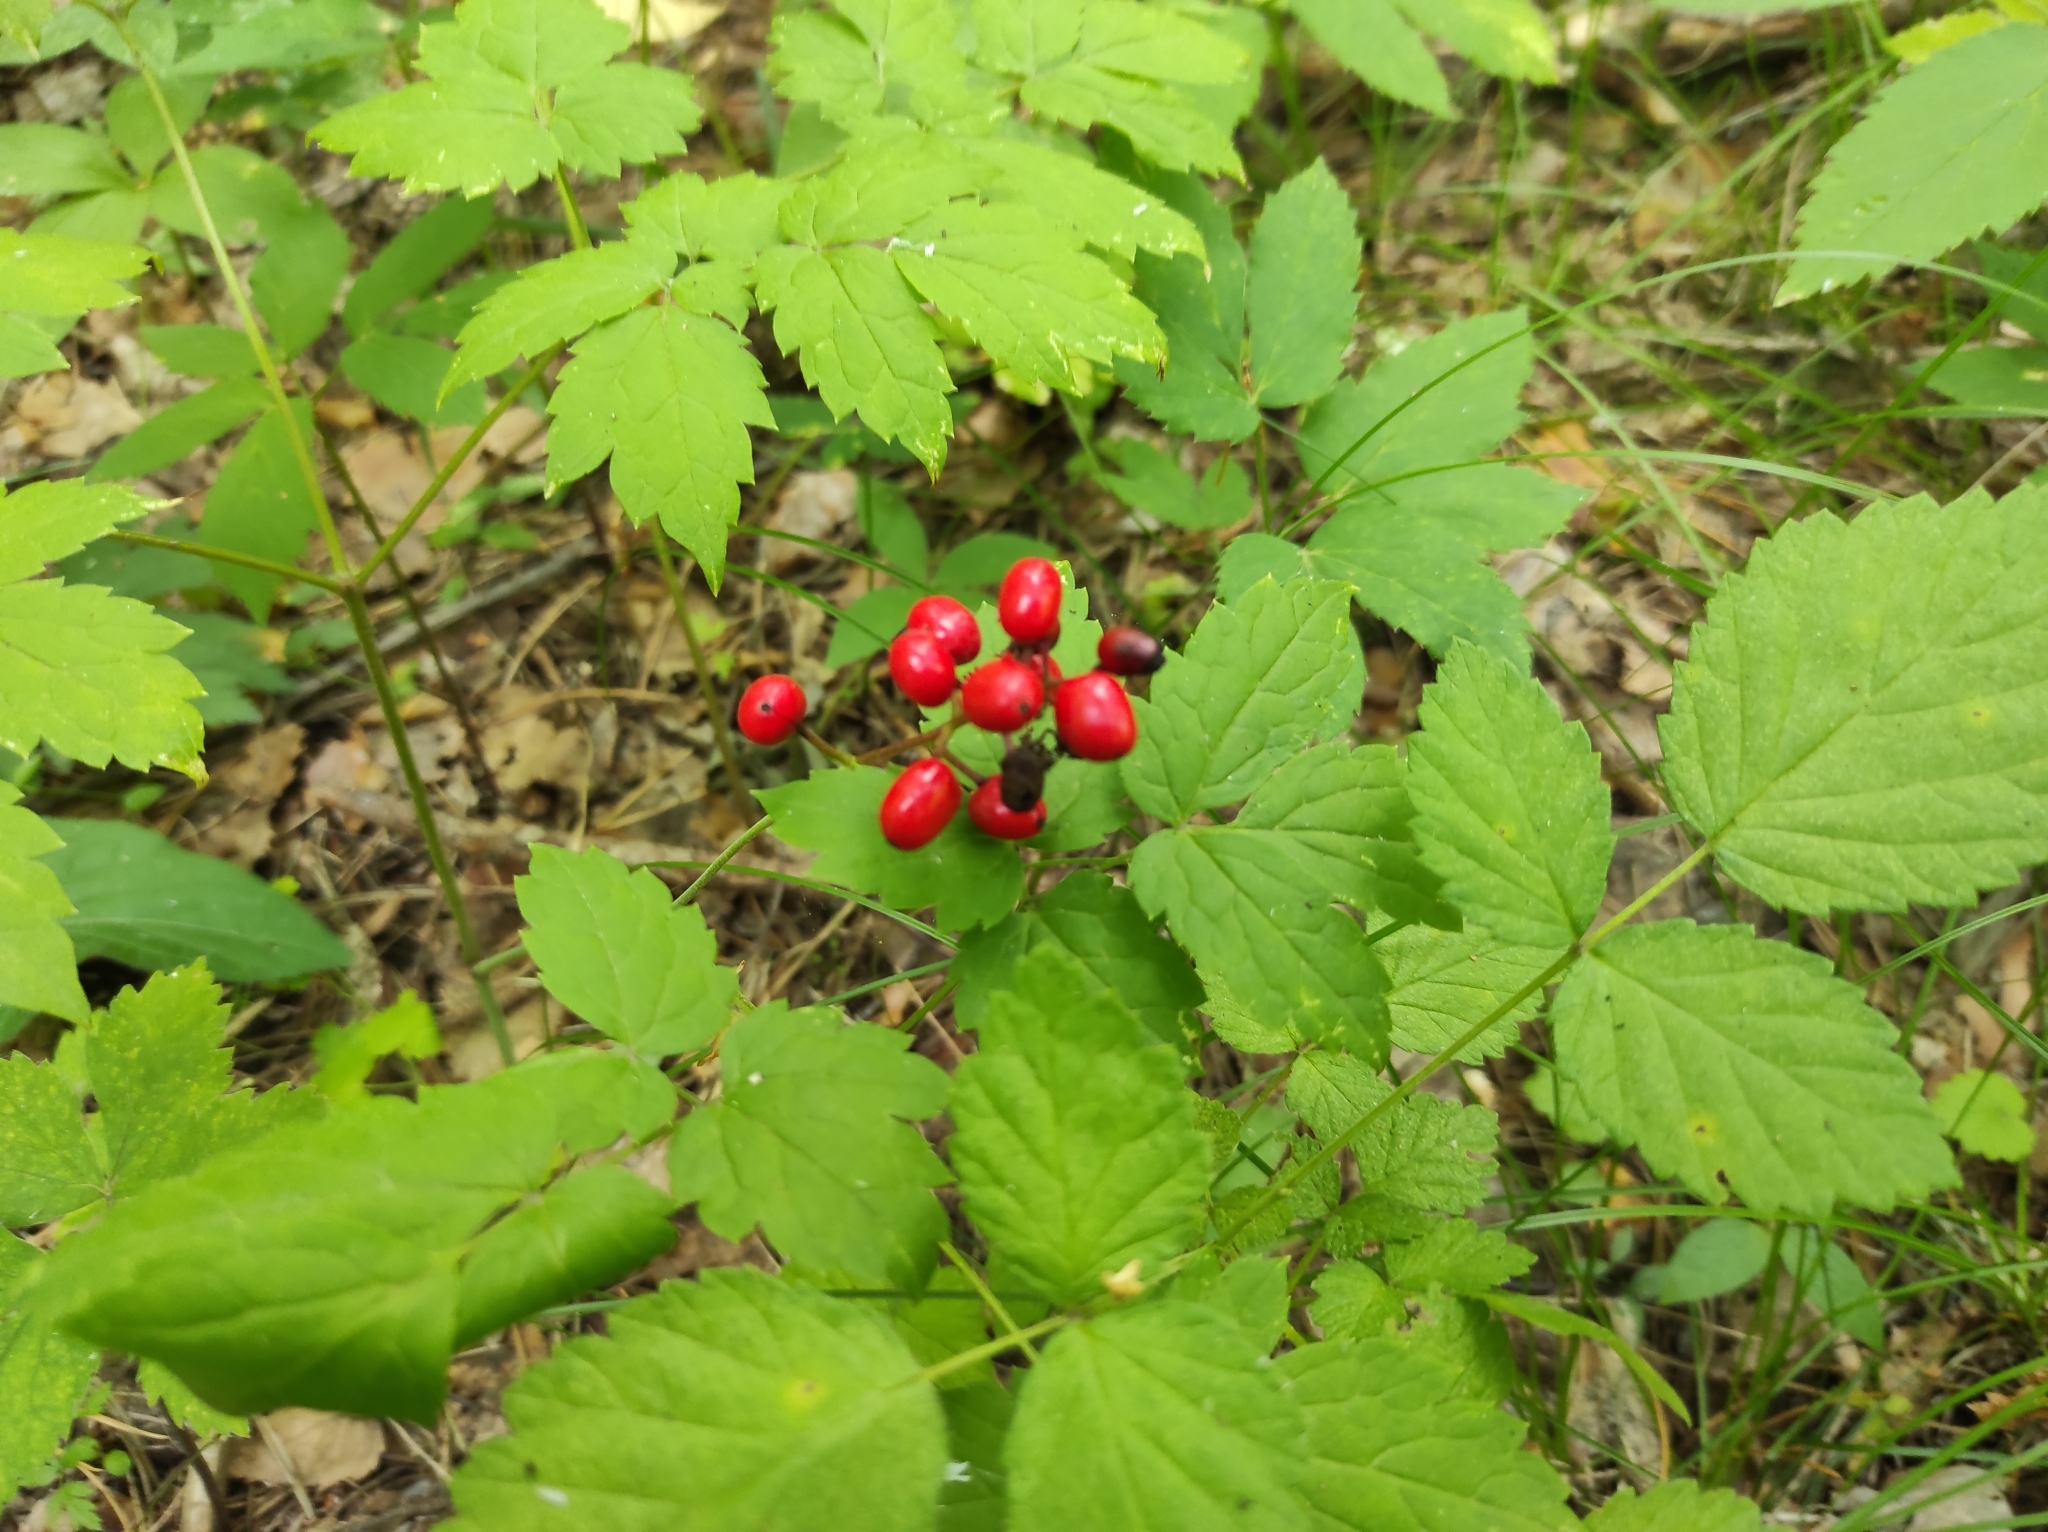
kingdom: Plantae
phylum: Tracheophyta
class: Magnoliopsida
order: Ranunculales
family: Ranunculaceae
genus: Actaea
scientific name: Actaea erythrocarpa
